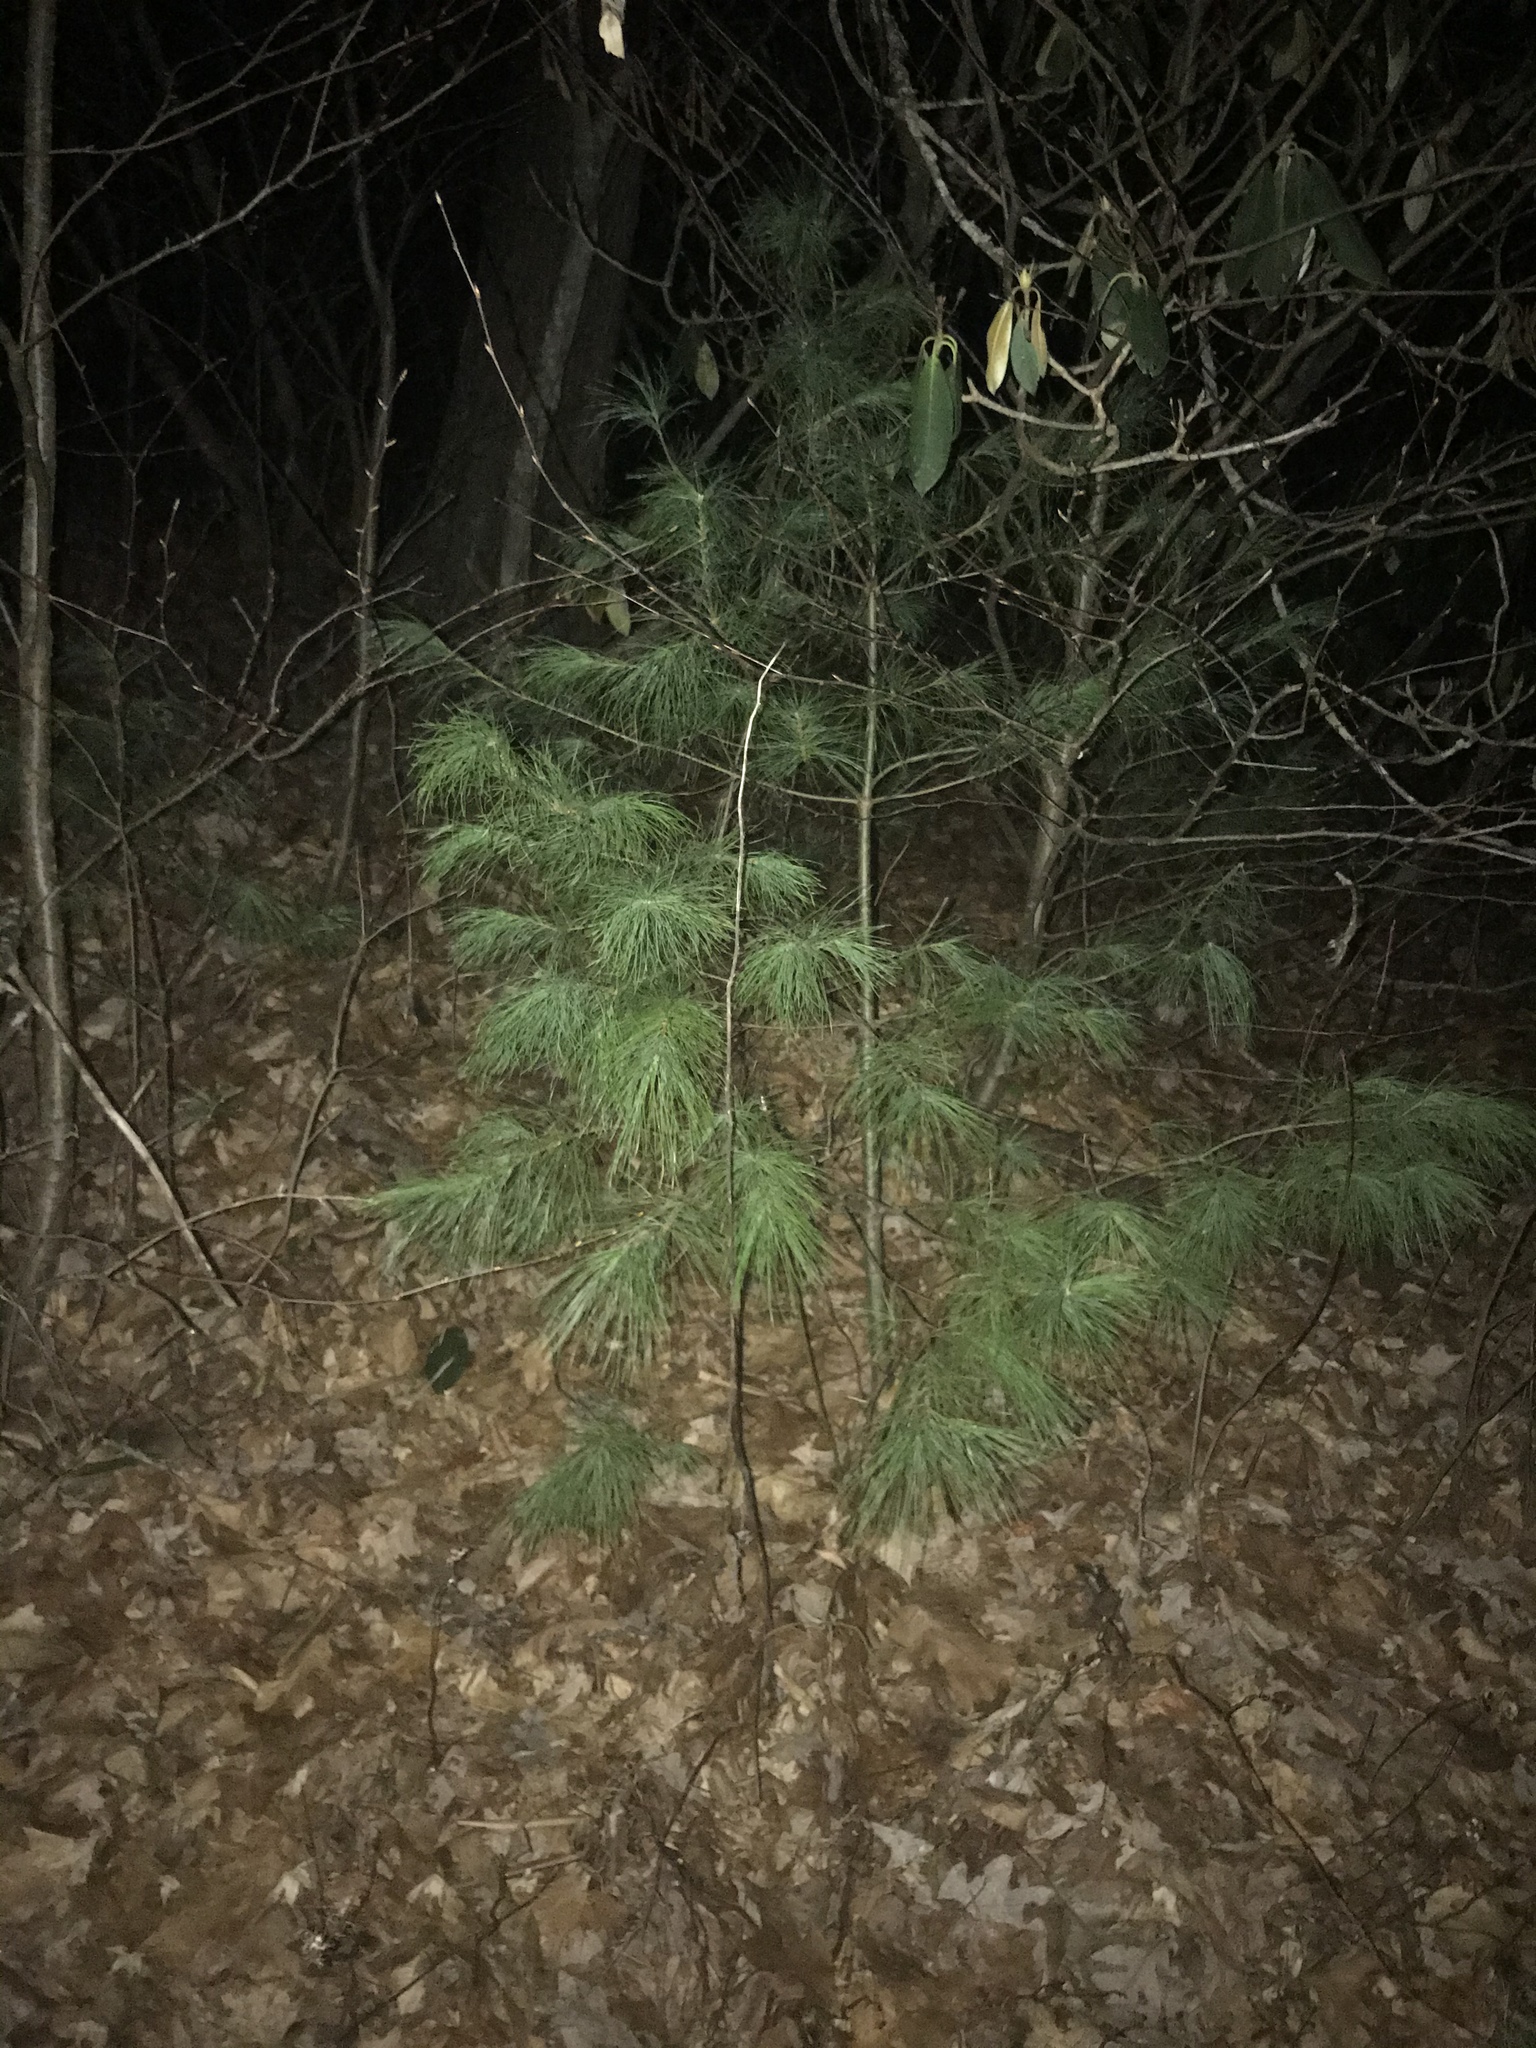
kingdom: Plantae
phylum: Tracheophyta
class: Pinopsida
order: Pinales
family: Pinaceae
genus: Pinus
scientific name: Pinus strobus
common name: Weymouth pine
